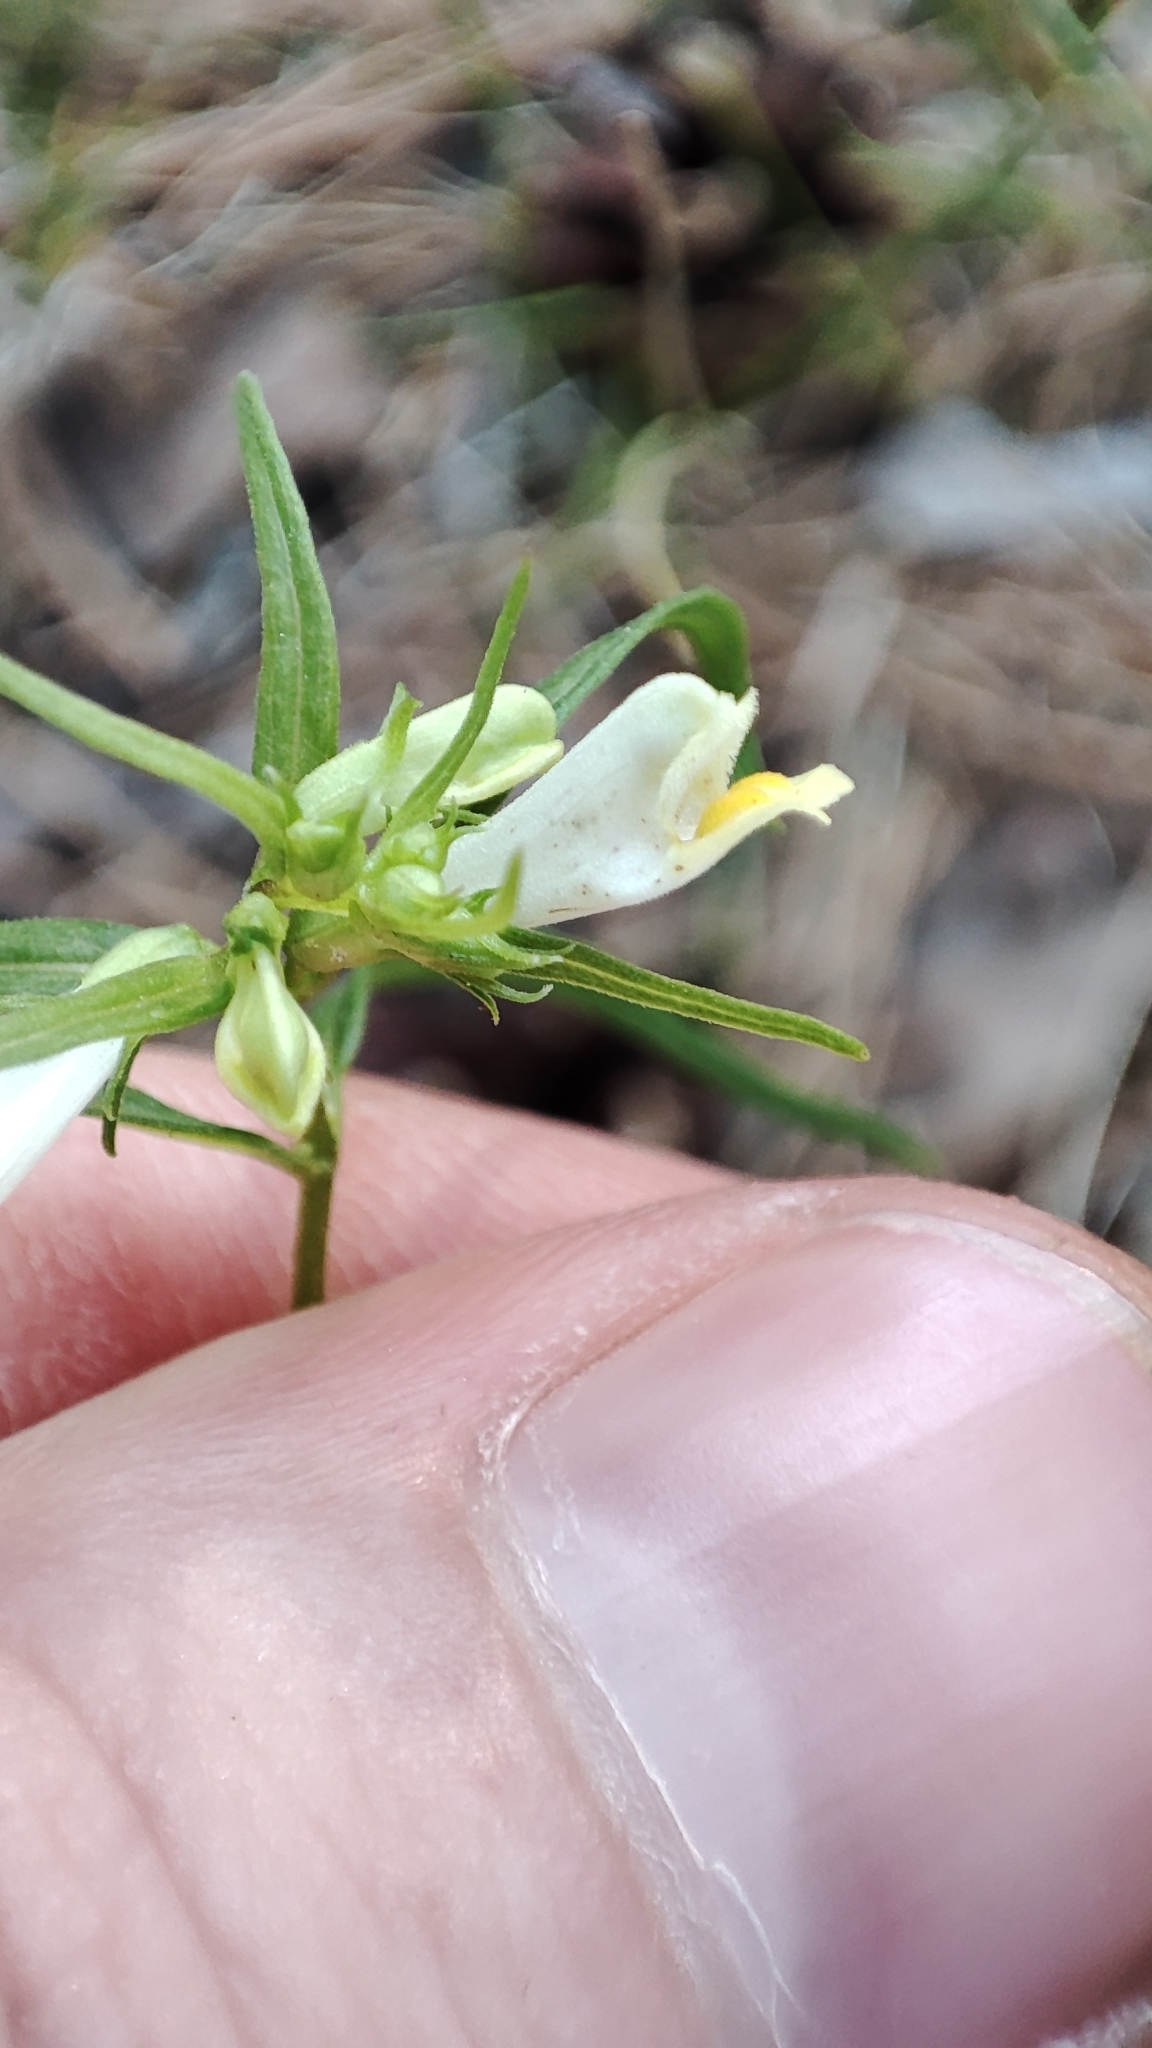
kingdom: Plantae
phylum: Tracheophyta
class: Magnoliopsida
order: Lamiales
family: Orobanchaceae
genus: Melampyrum
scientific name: Melampyrum pratense
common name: Common cow-wheat
